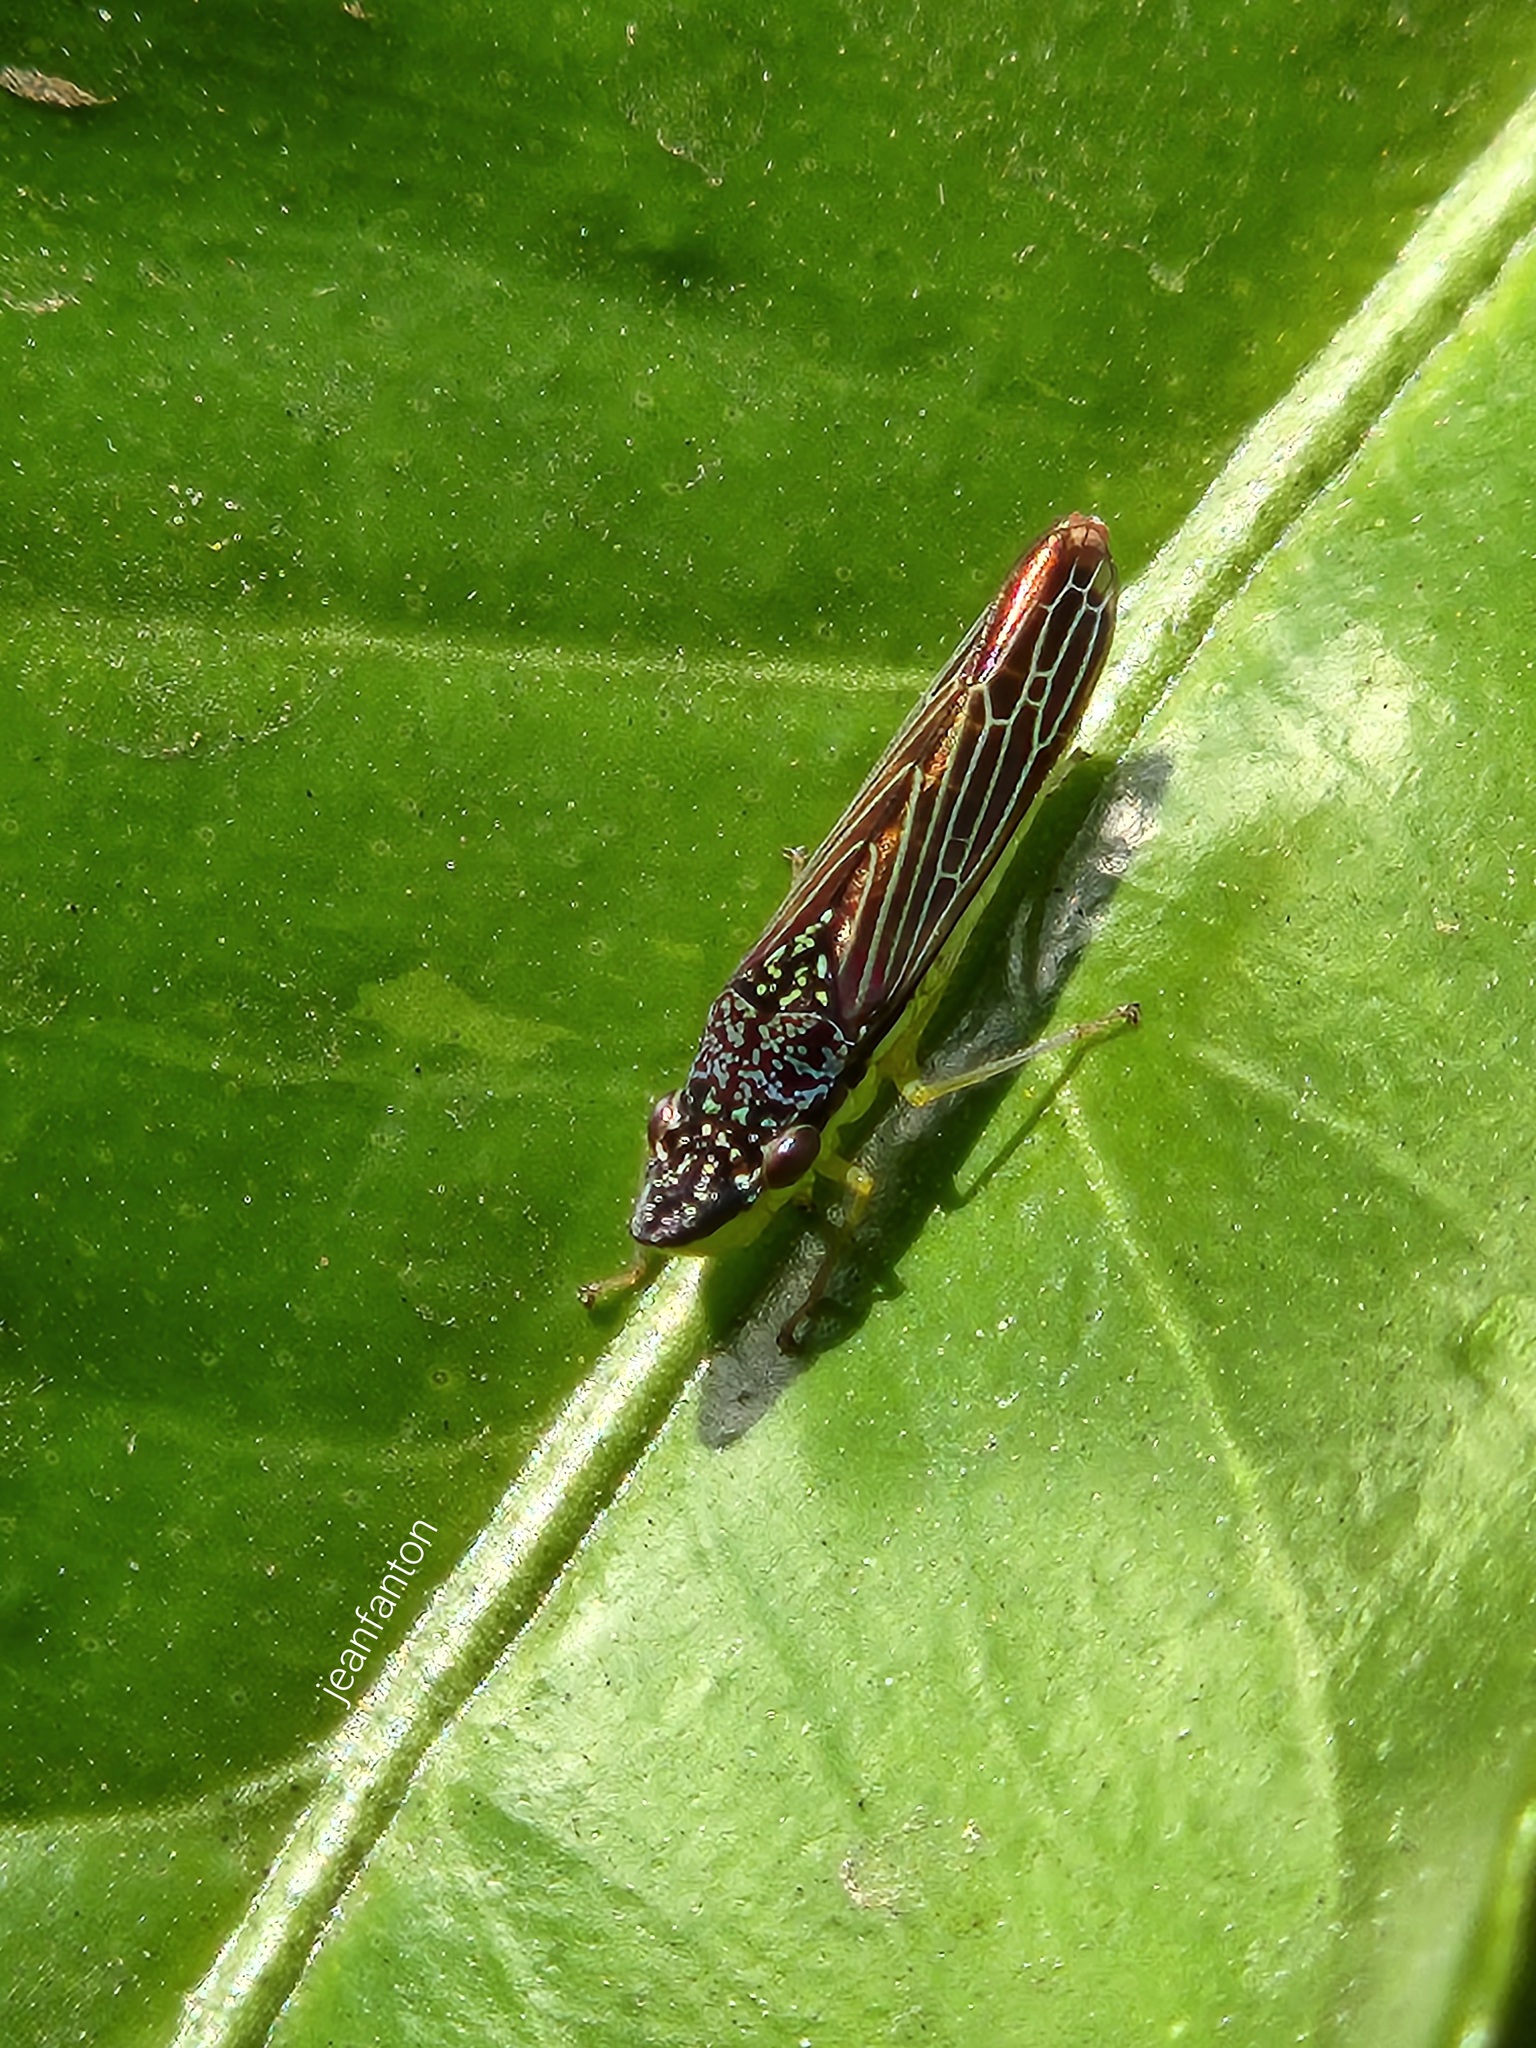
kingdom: Animalia
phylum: Arthropoda
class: Insecta
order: Hemiptera
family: Cicadellidae
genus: Acrogonia
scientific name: Acrogonia citrina
